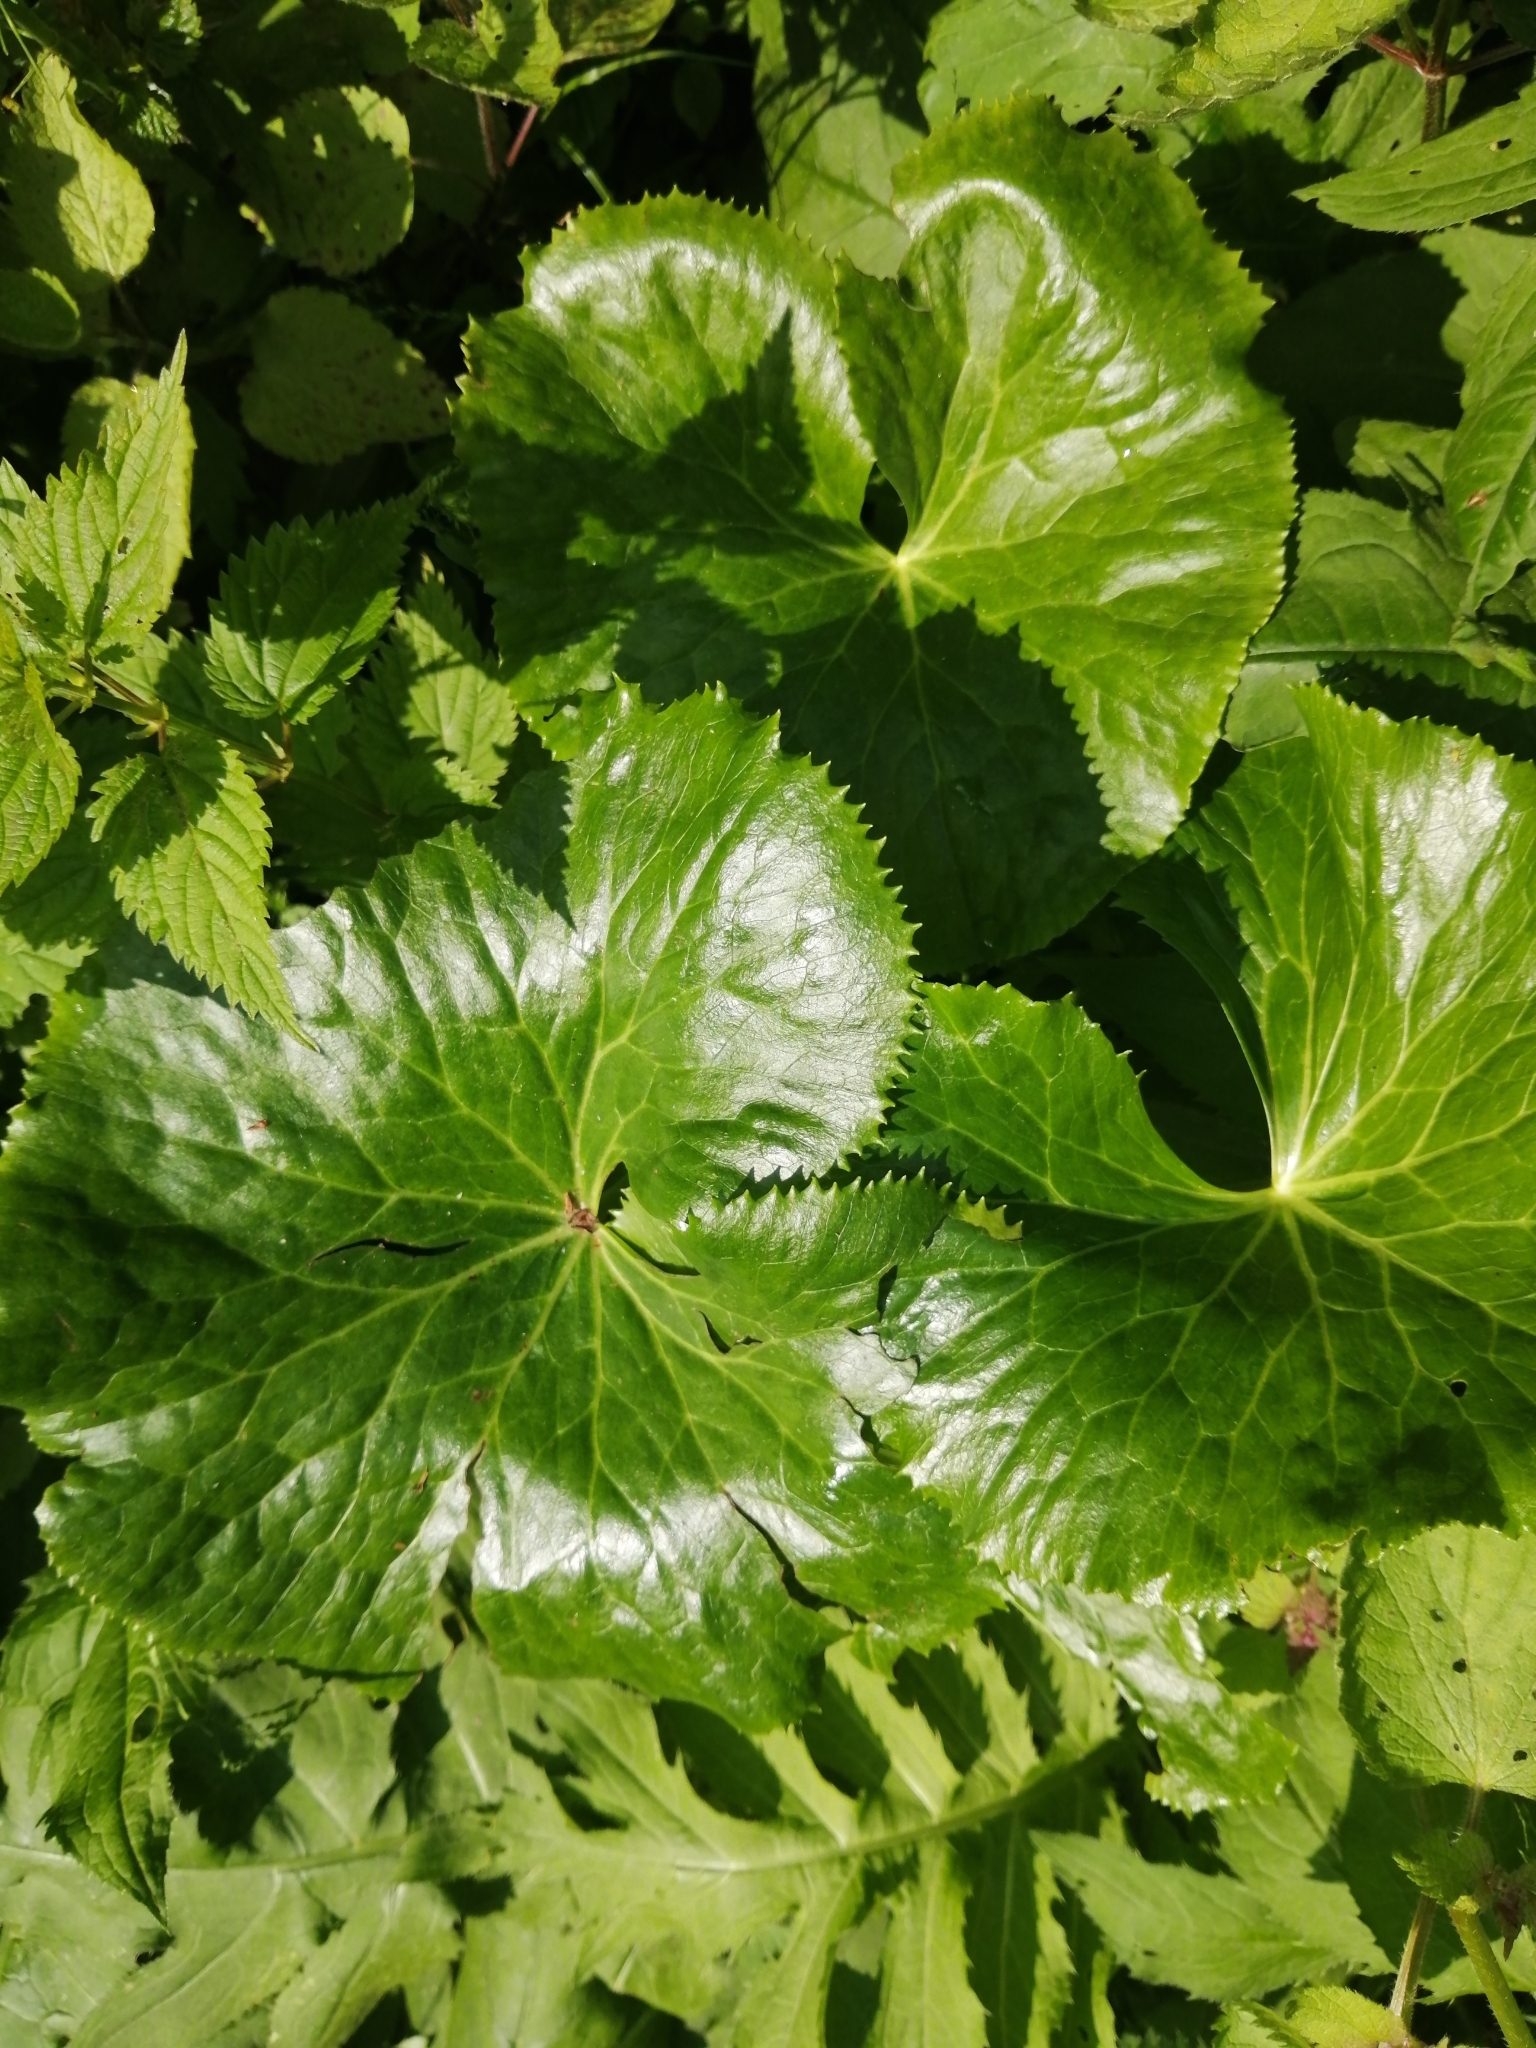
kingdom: Plantae
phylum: Tracheophyta
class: Magnoliopsida
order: Ranunculales
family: Ranunculaceae
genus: Caltha
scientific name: Caltha palustris
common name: Marsh marigold
